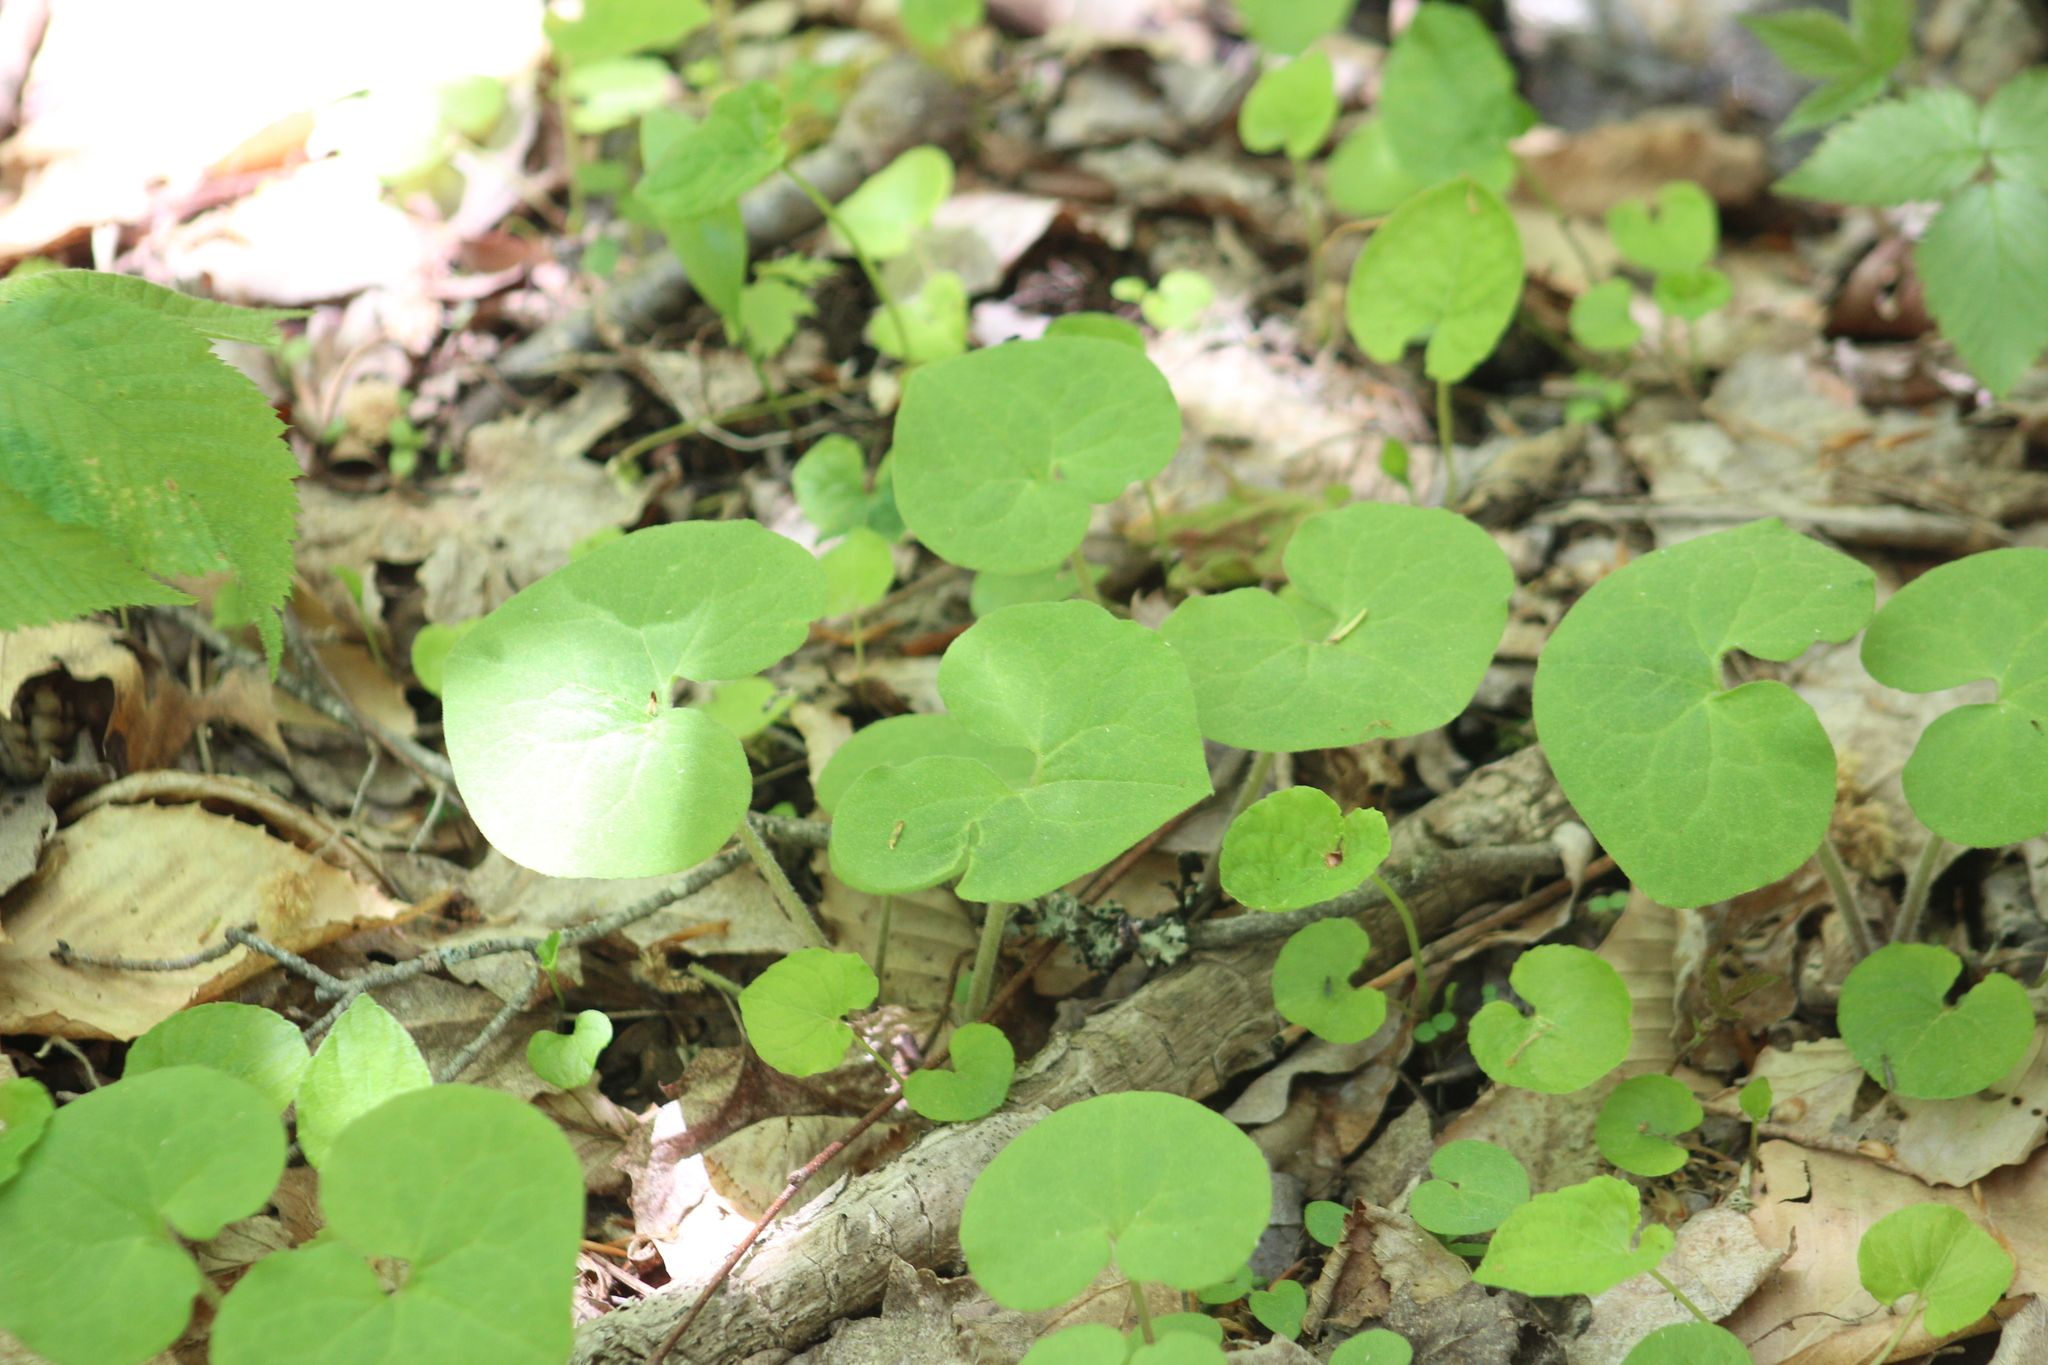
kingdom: Plantae
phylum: Tracheophyta
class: Magnoliopsida
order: Piperales
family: Aristolochiaceae
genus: Asarum
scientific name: Asarum canadense
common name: Wild ginger
